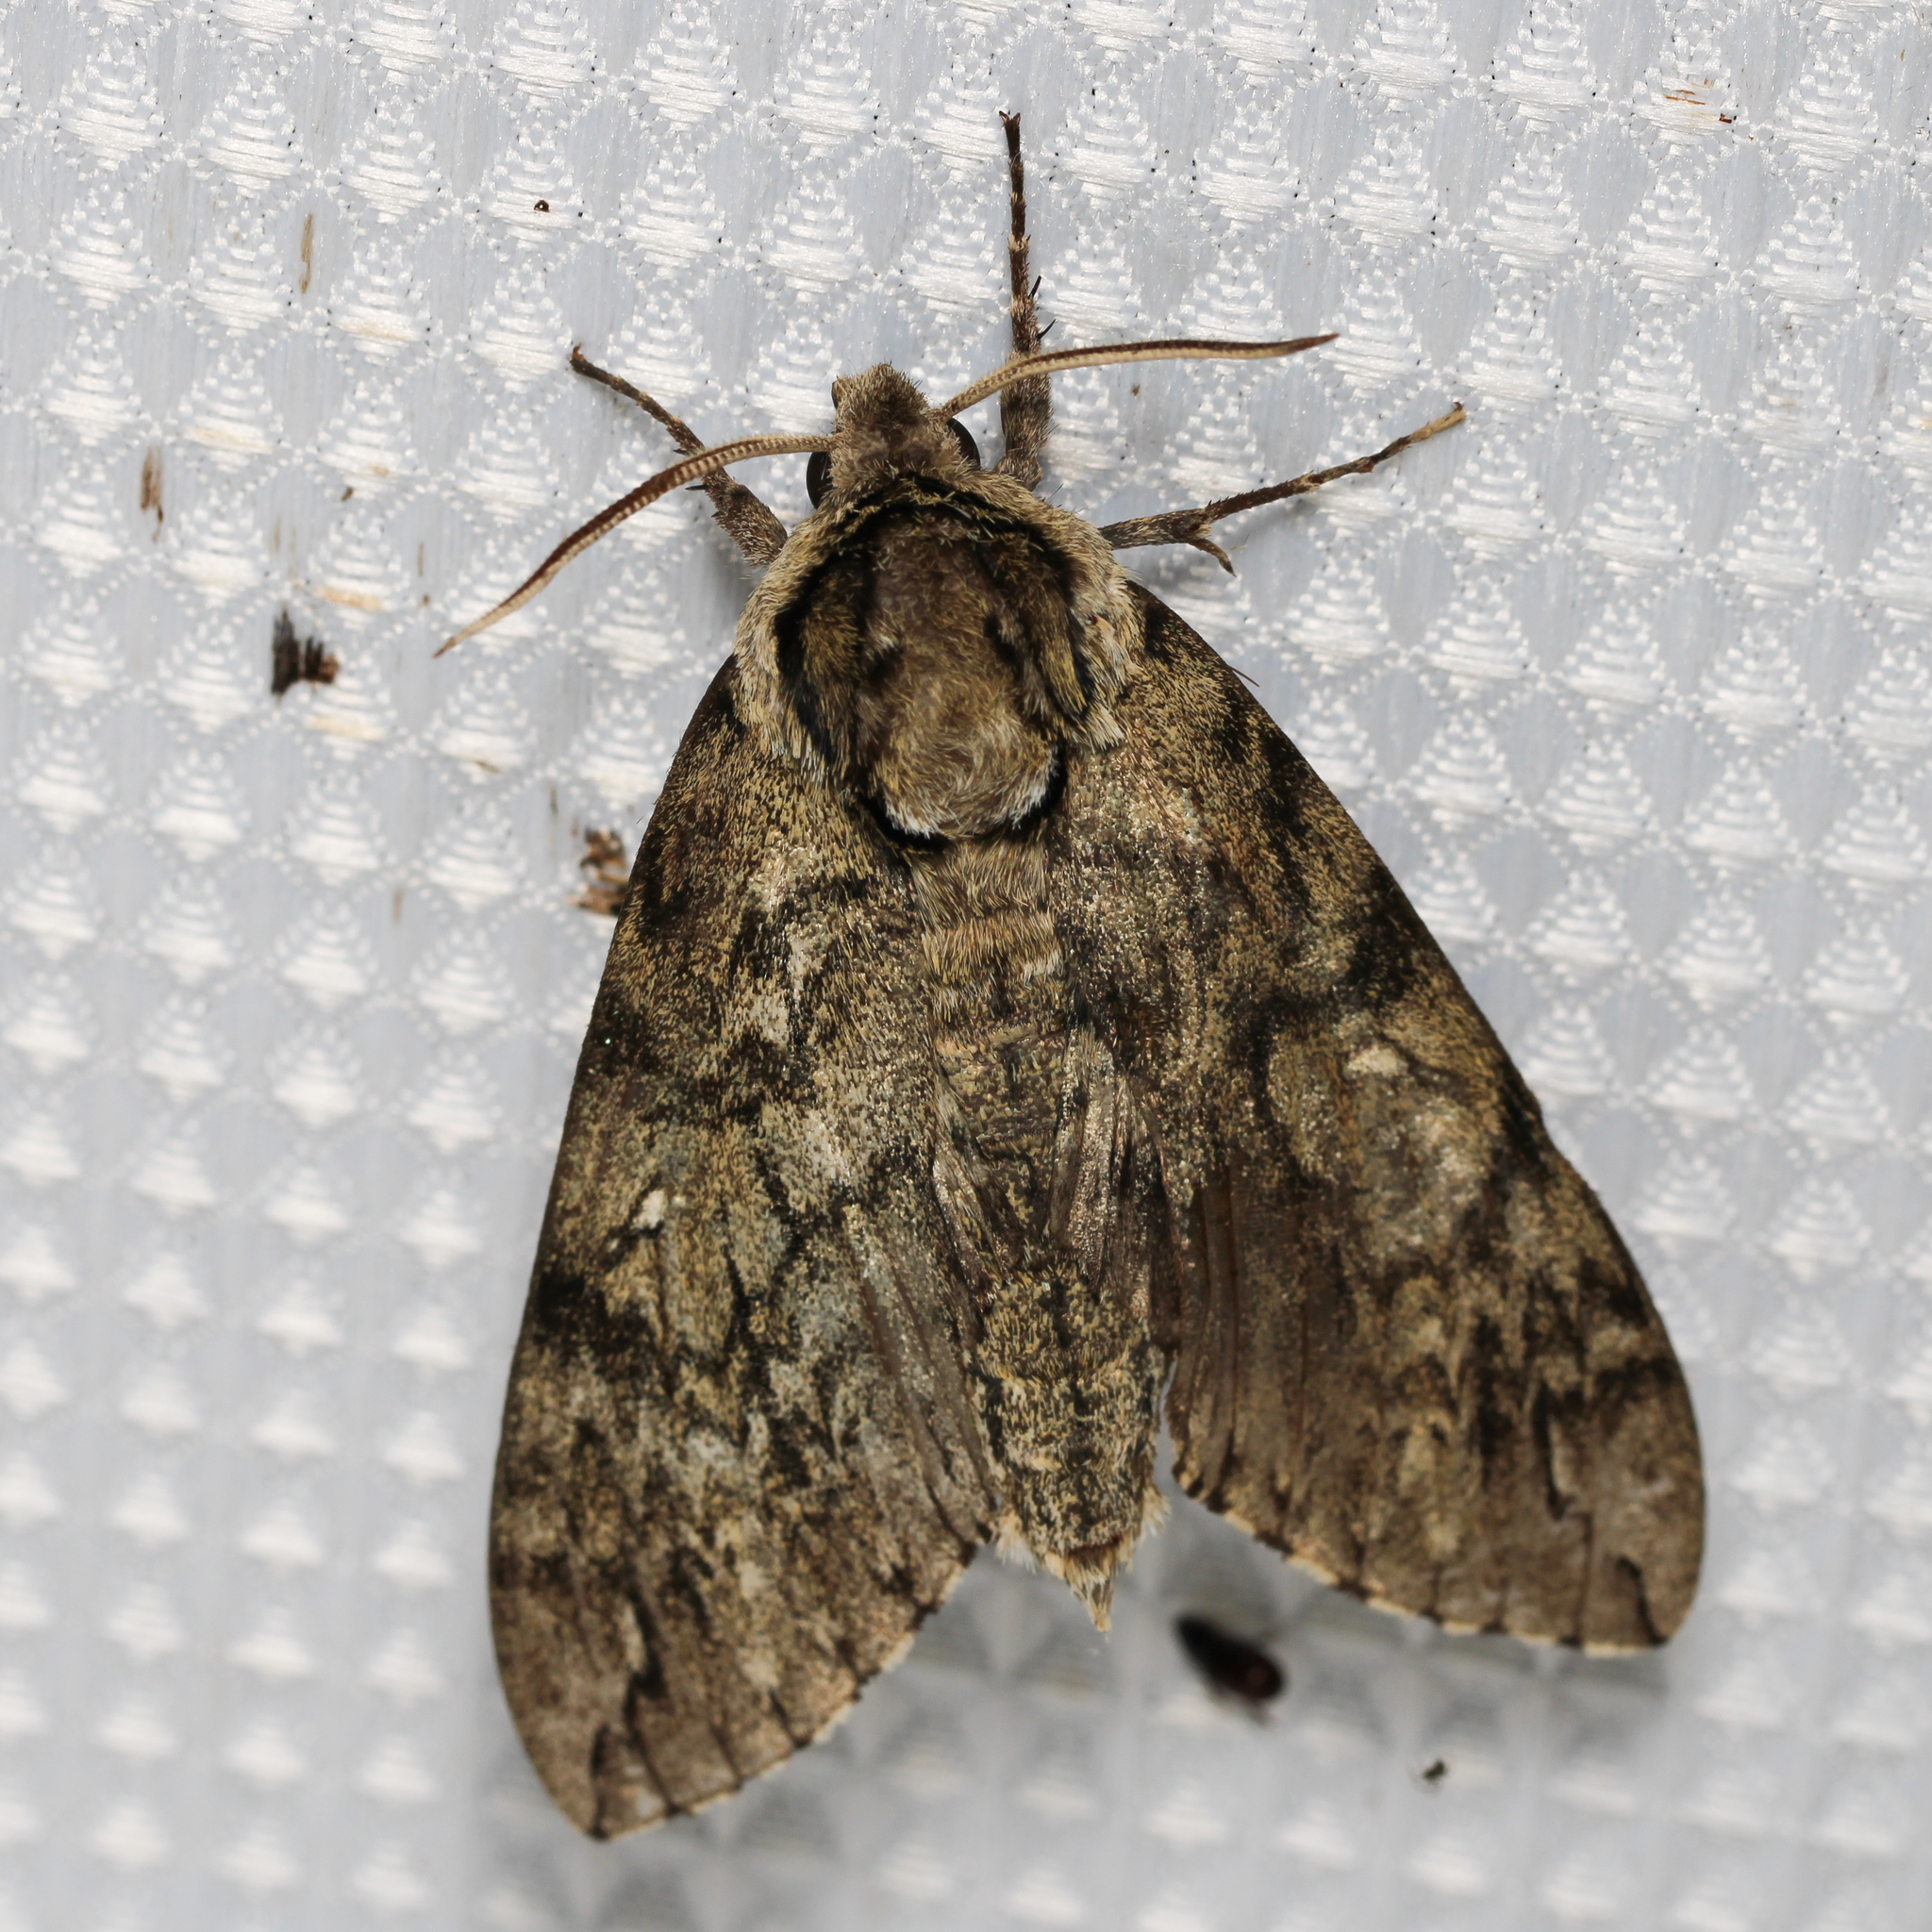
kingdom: Animalia
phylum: Arthropoda
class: Insecta
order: Lepidoptera
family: Sphingidae
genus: Ceratomia
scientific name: Ceratomia undulosa
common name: Waved sphinx
